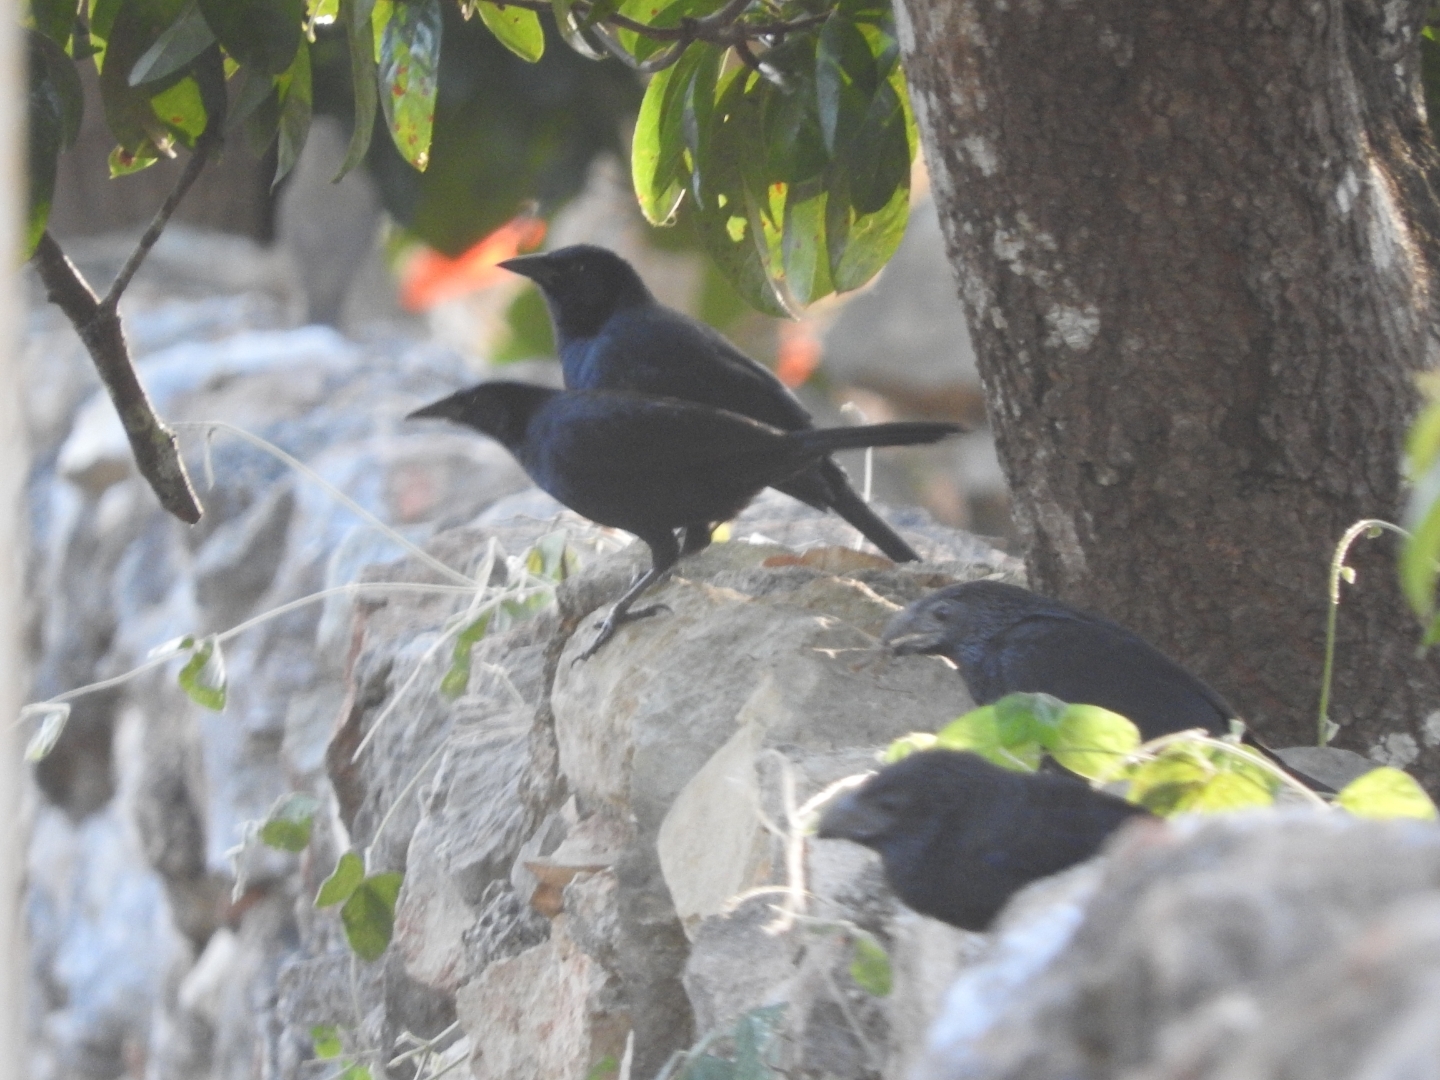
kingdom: Animalia
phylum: Chordata
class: Aves
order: Passeriformes
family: Icteridae
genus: Dives
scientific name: Dives dives
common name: Melodious blackbird
